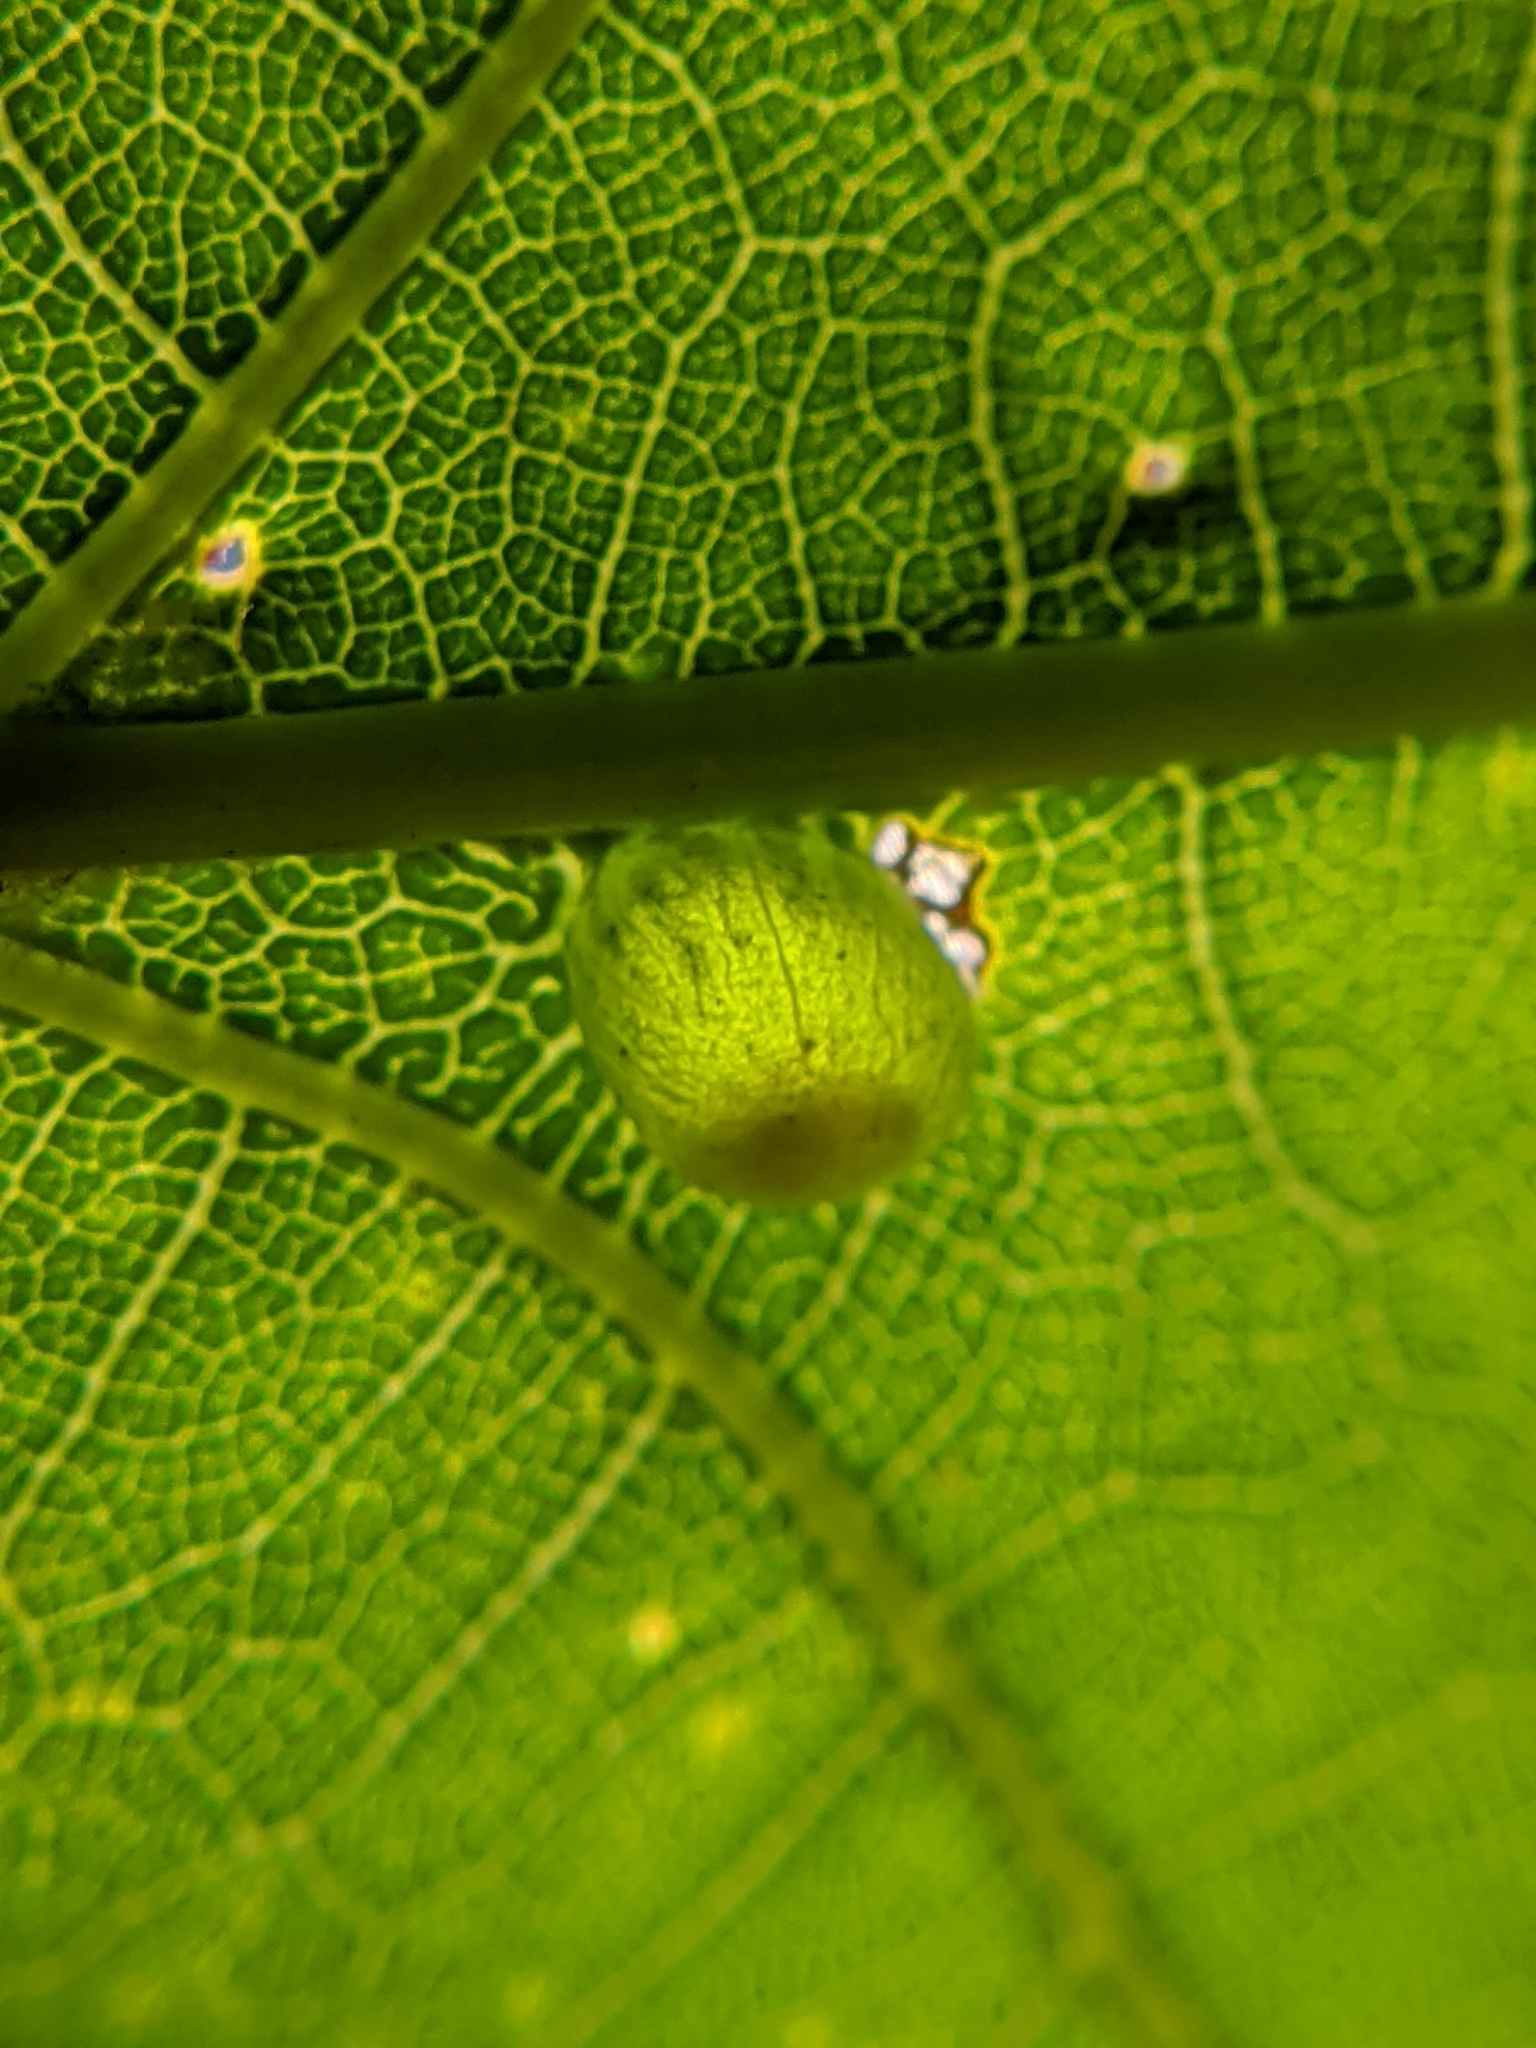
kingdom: Animalia
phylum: Arthropoda
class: Insecta
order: Hymenoptera
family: Cynipidae
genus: Dryocosmus
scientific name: Dryocosmus
